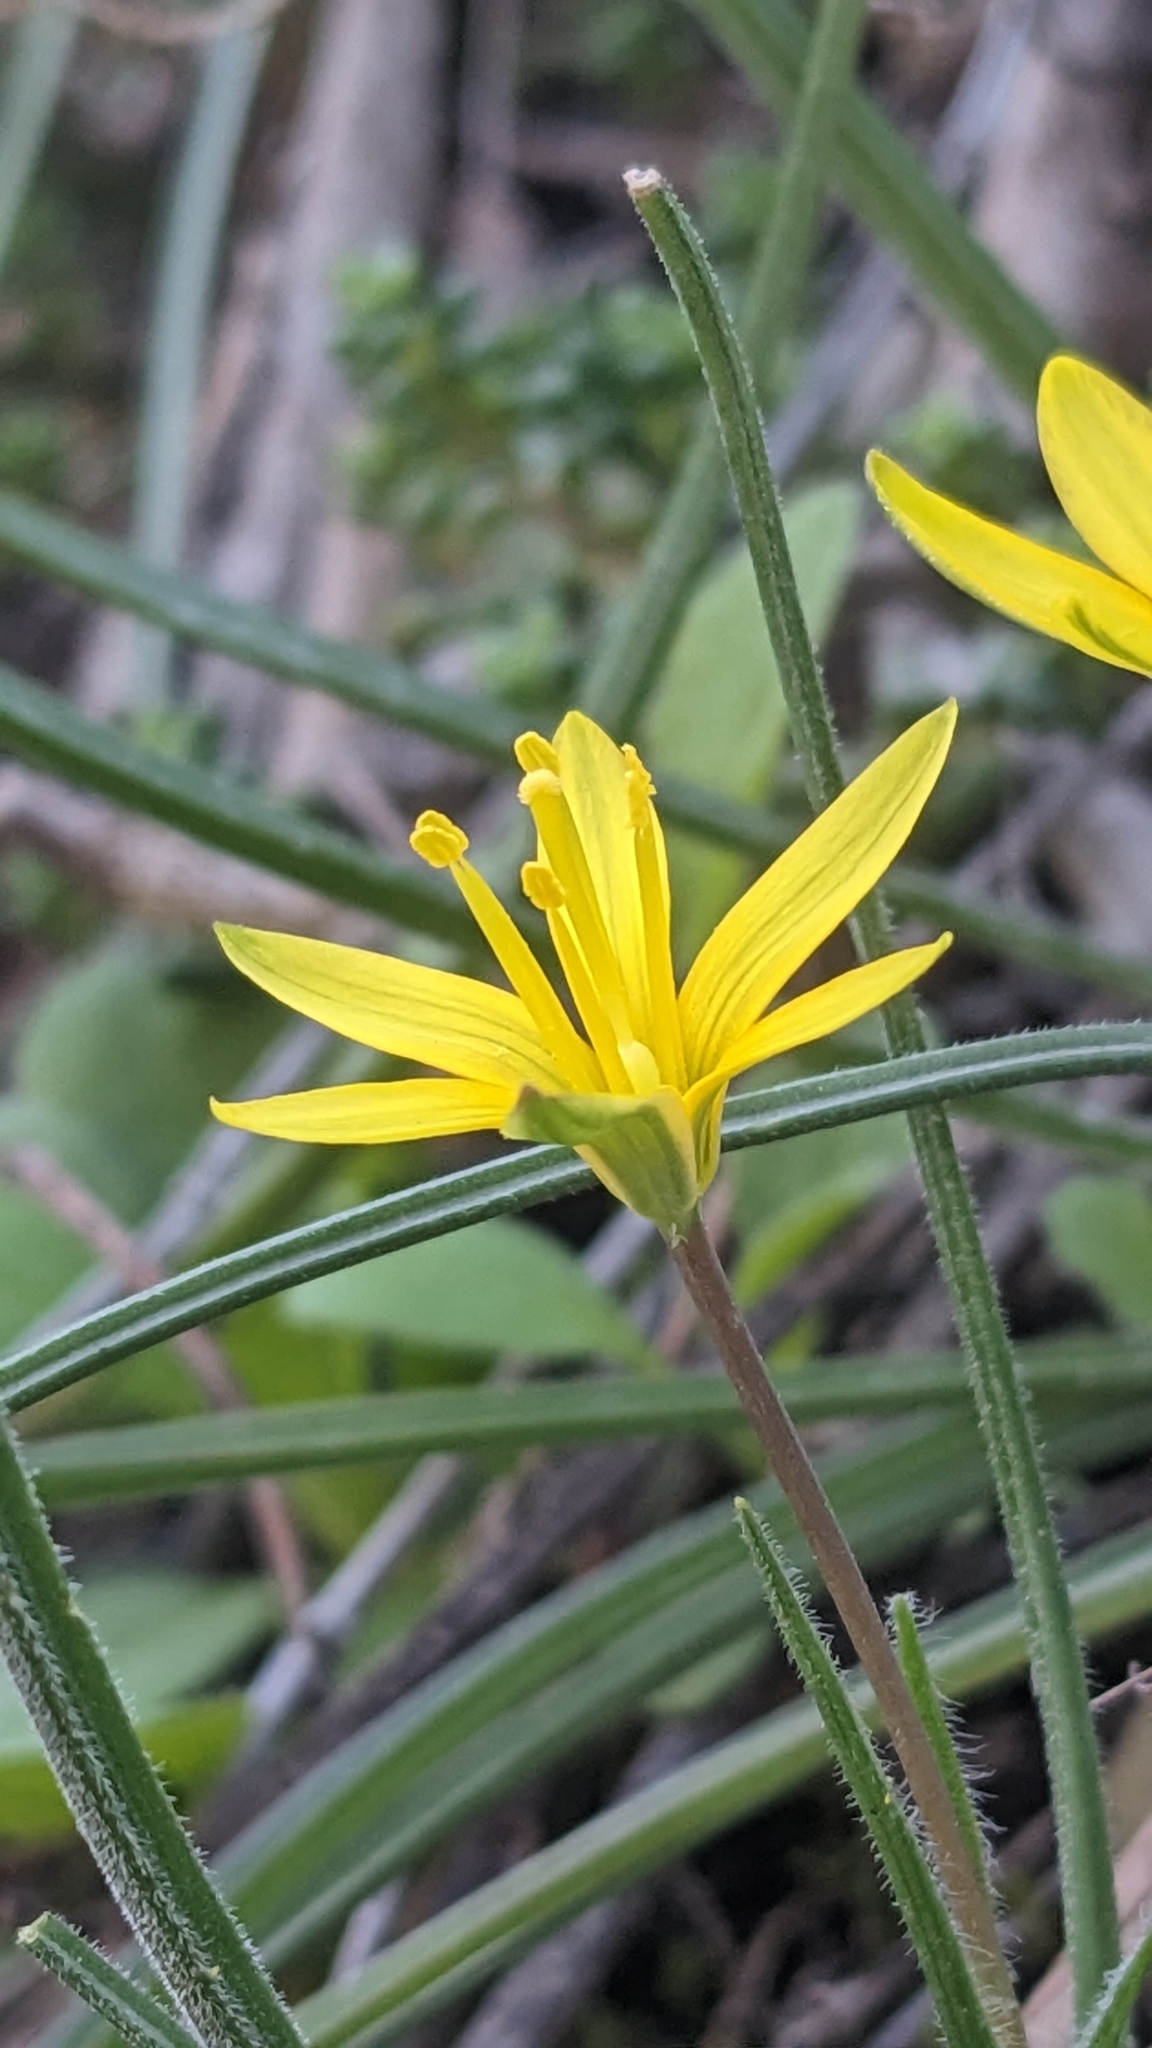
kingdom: Plantae
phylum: Tracheophyta
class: Liliopsida
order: Liliales
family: Liliaceae
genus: Gagea
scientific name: Gagea villosa
